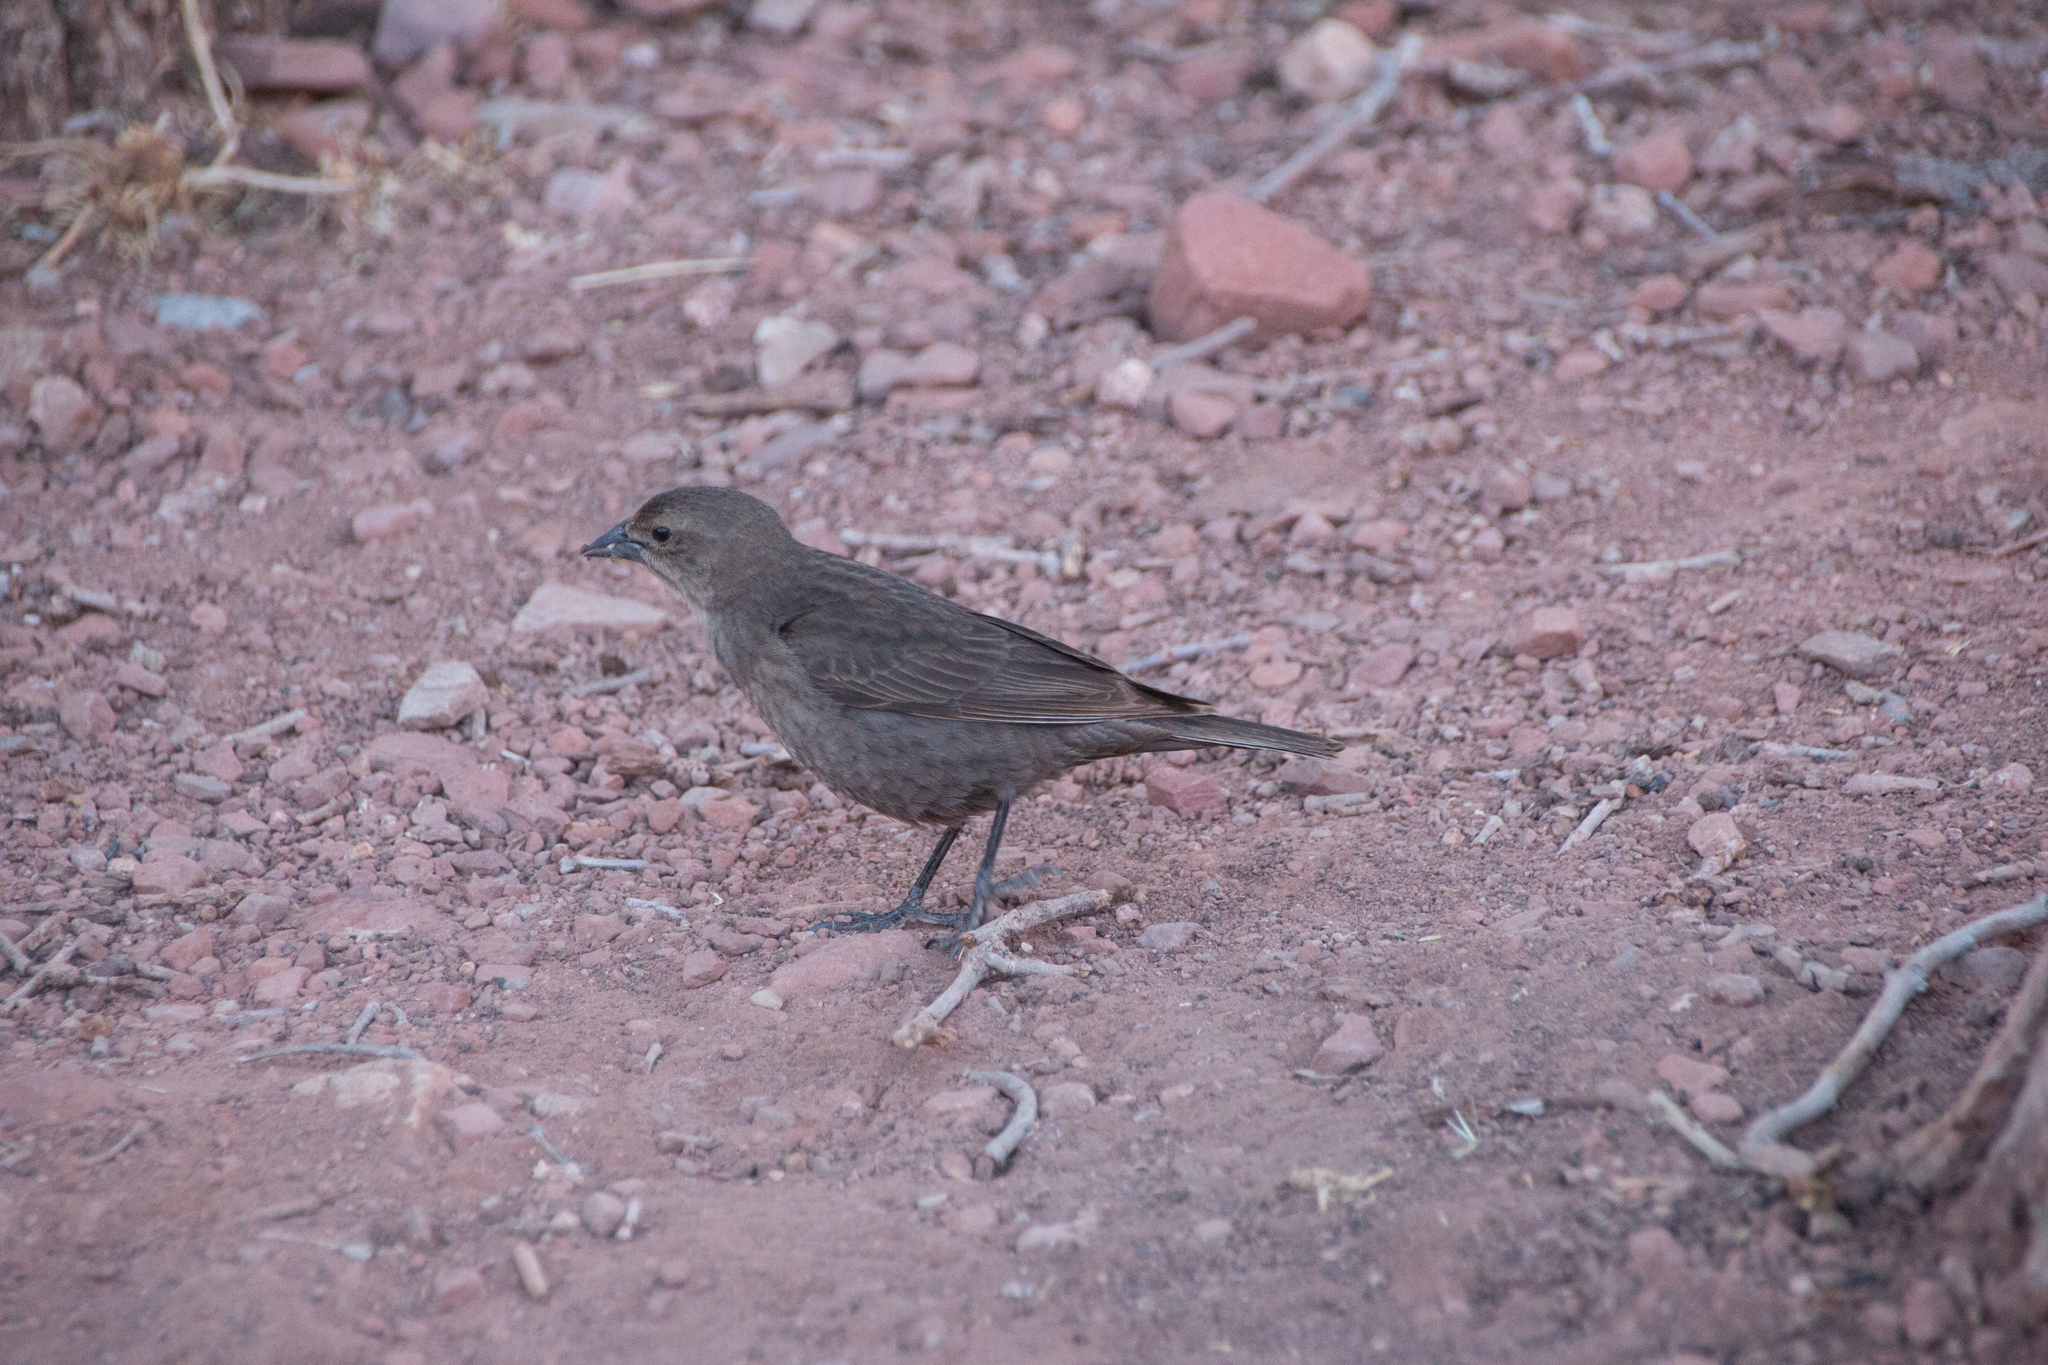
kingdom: Animalia
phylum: Chordata
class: Aves
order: Passeriformes
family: Icteridae
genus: Molothrus
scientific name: Molothrus ater
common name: Brown-headed cowbird
